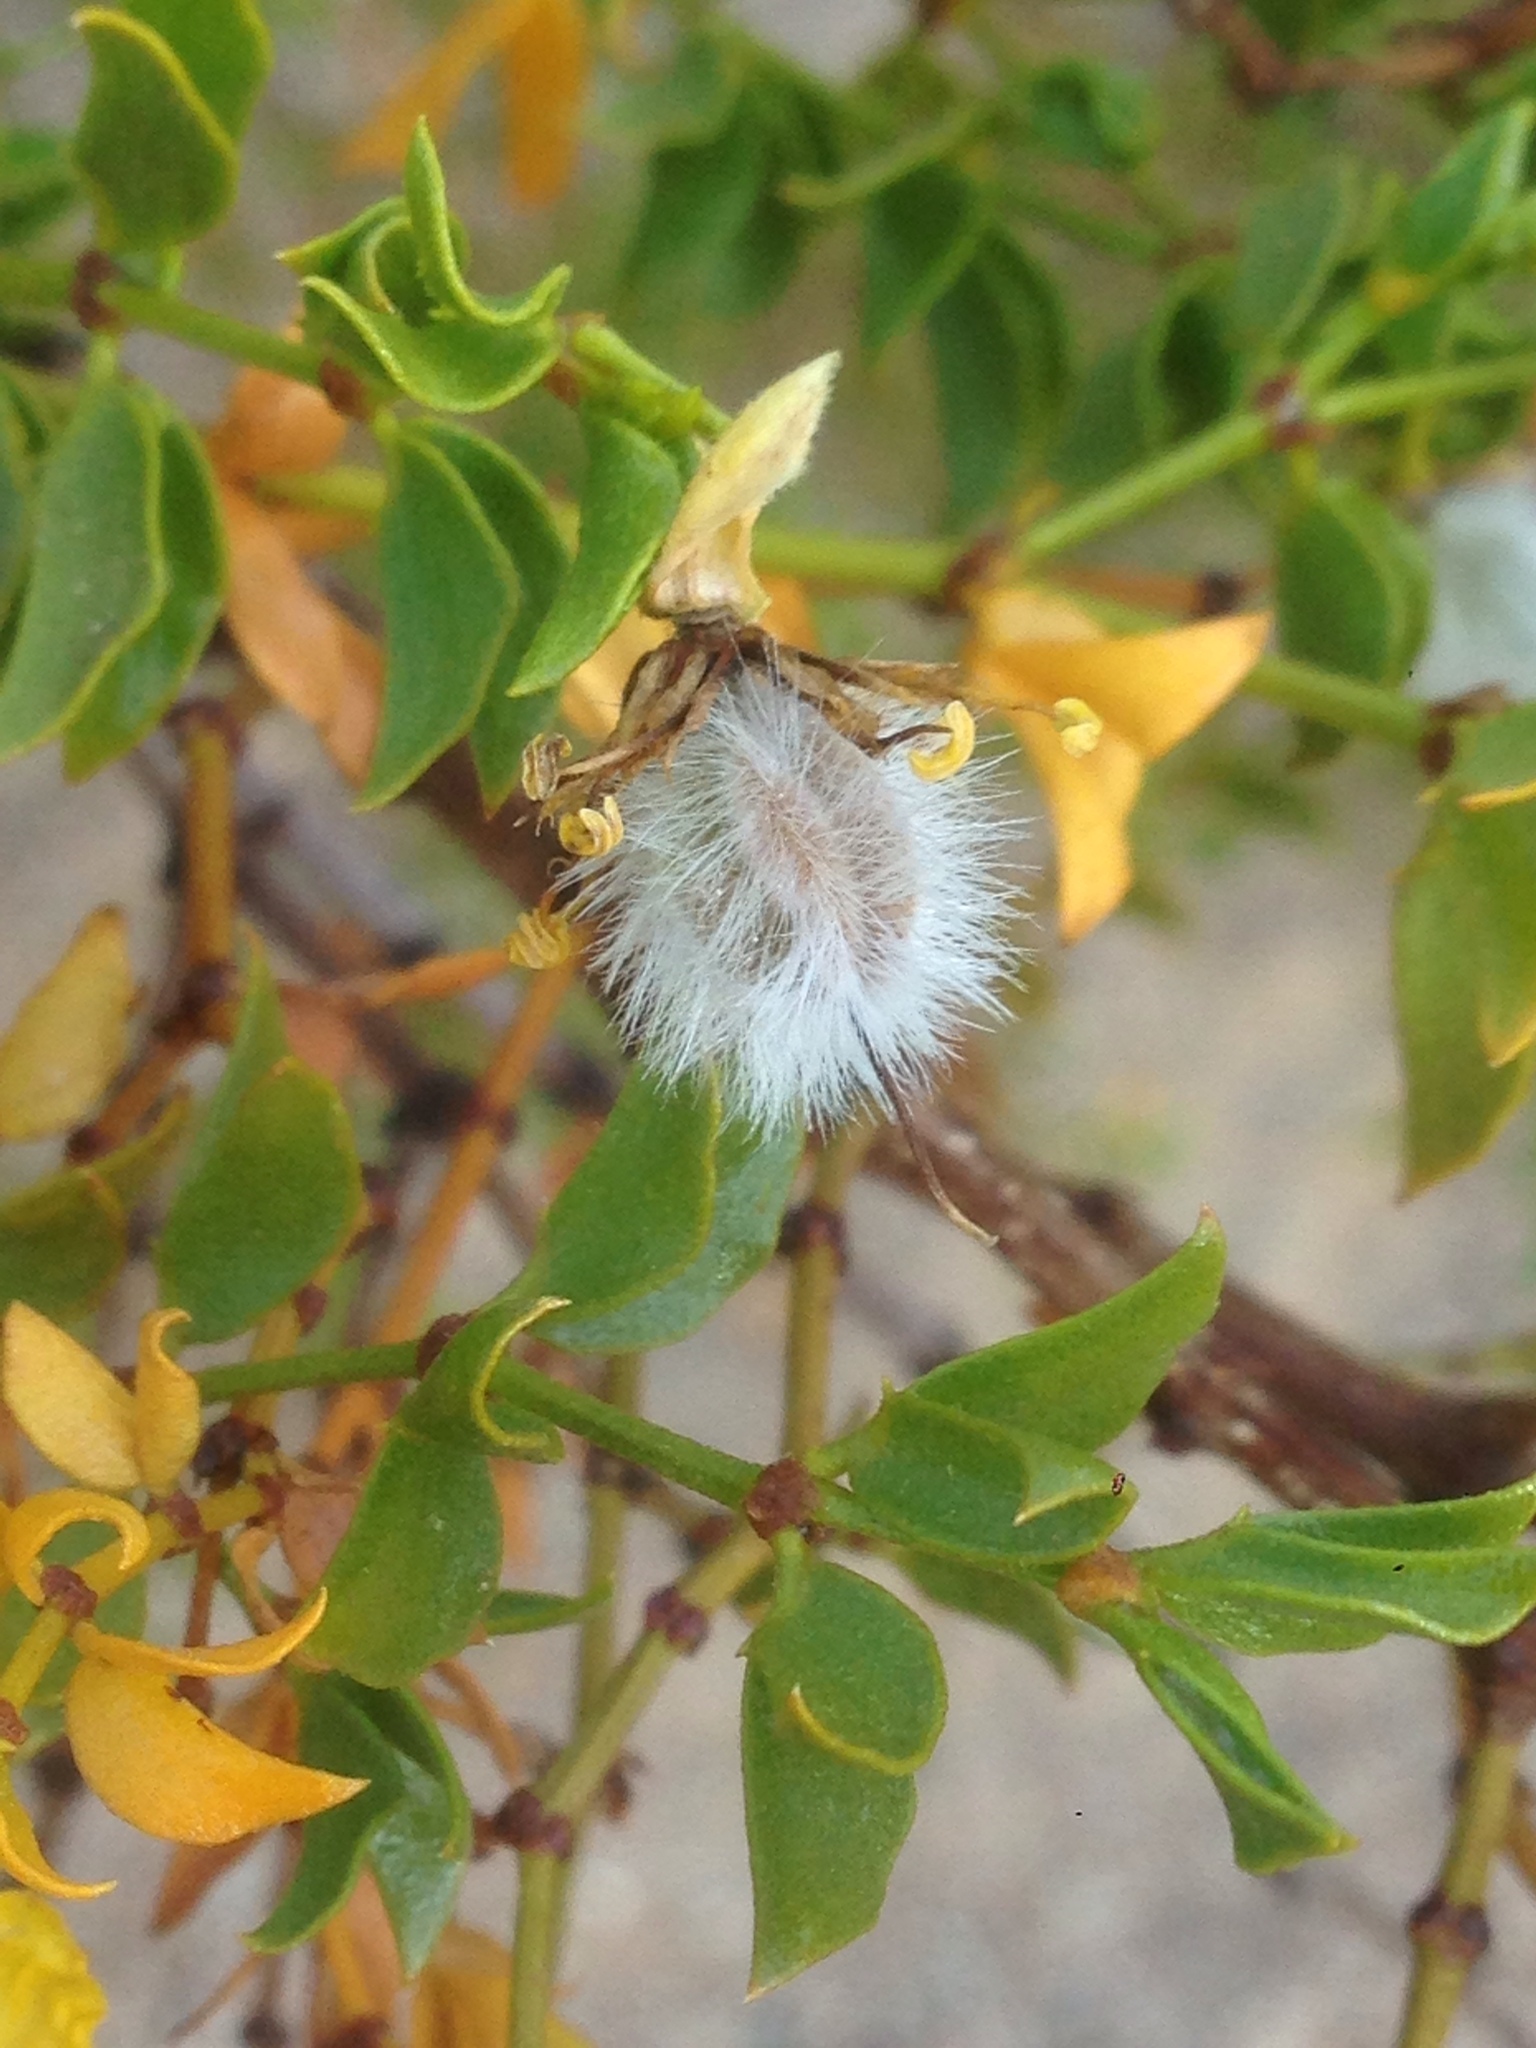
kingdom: Plantae
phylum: Tracheophyta
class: Magnoliopsida
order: Zygophyllales
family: Zygophyllaceae
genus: Larrea
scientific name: Larrea tridentata
